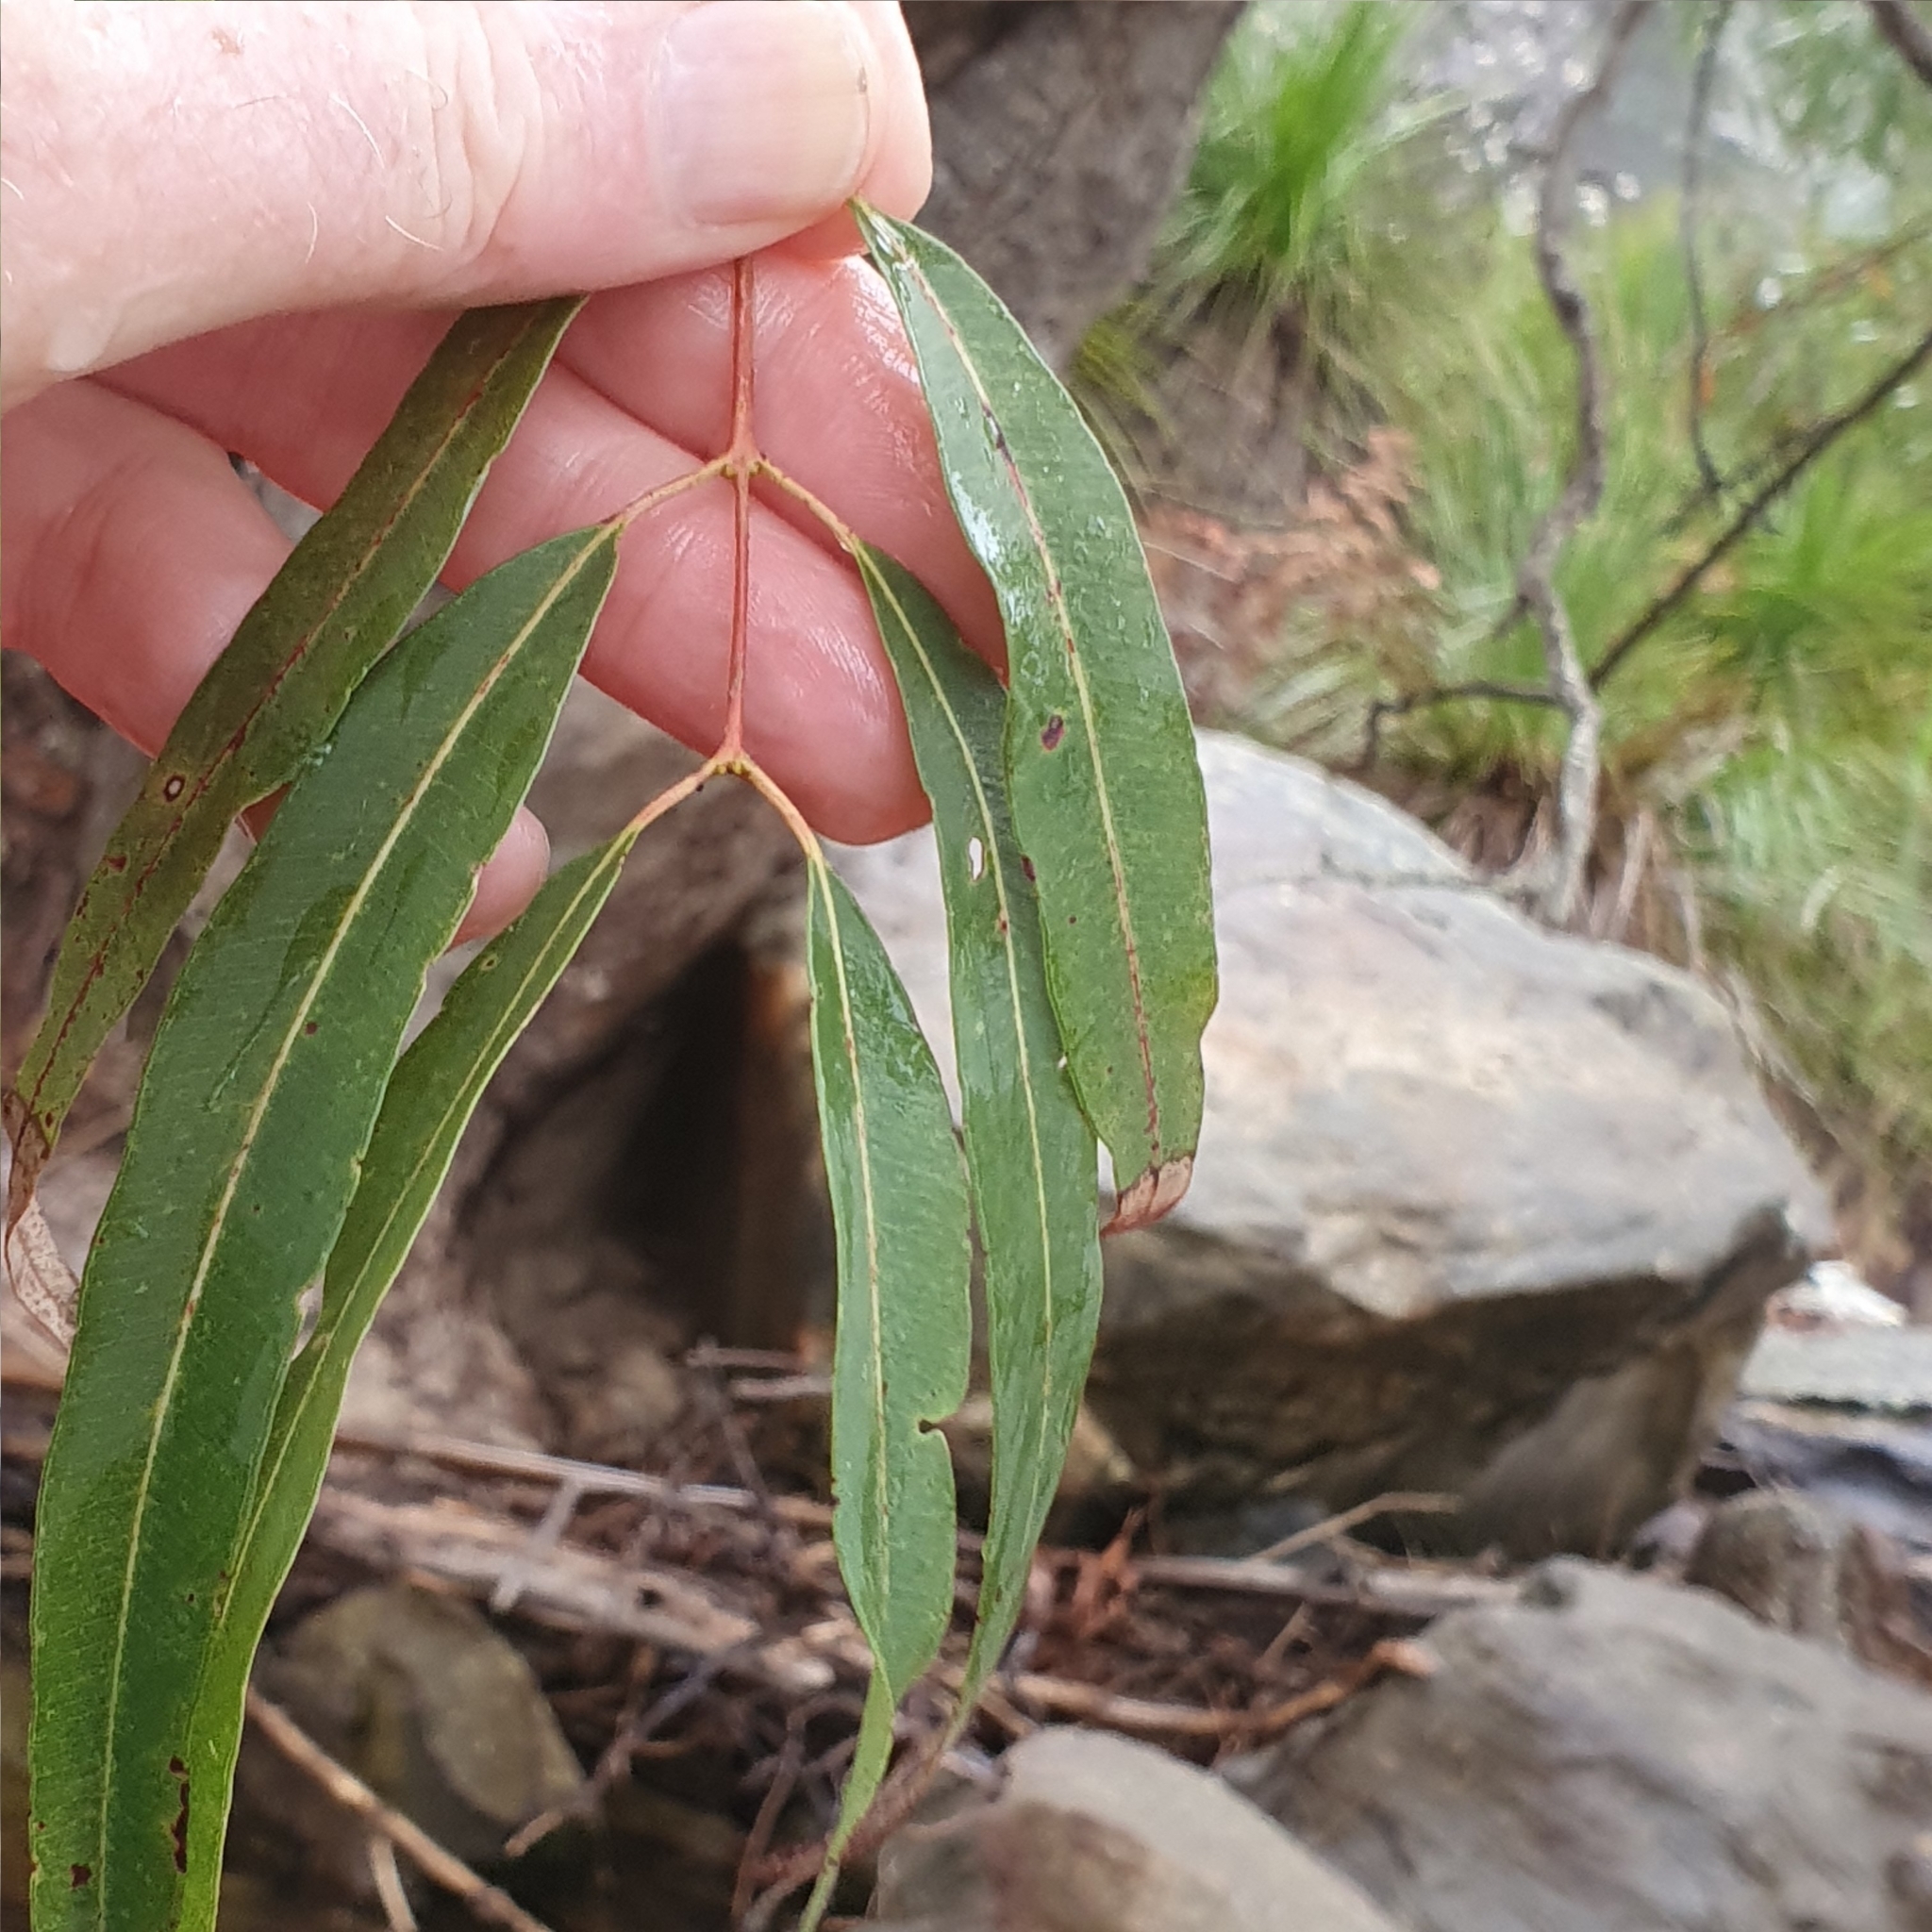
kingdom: Plantae
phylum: Tracheophyta
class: Magnoliopsida
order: Myrtales
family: Myrtaceae
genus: Angophora
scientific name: Angophora floribunda
